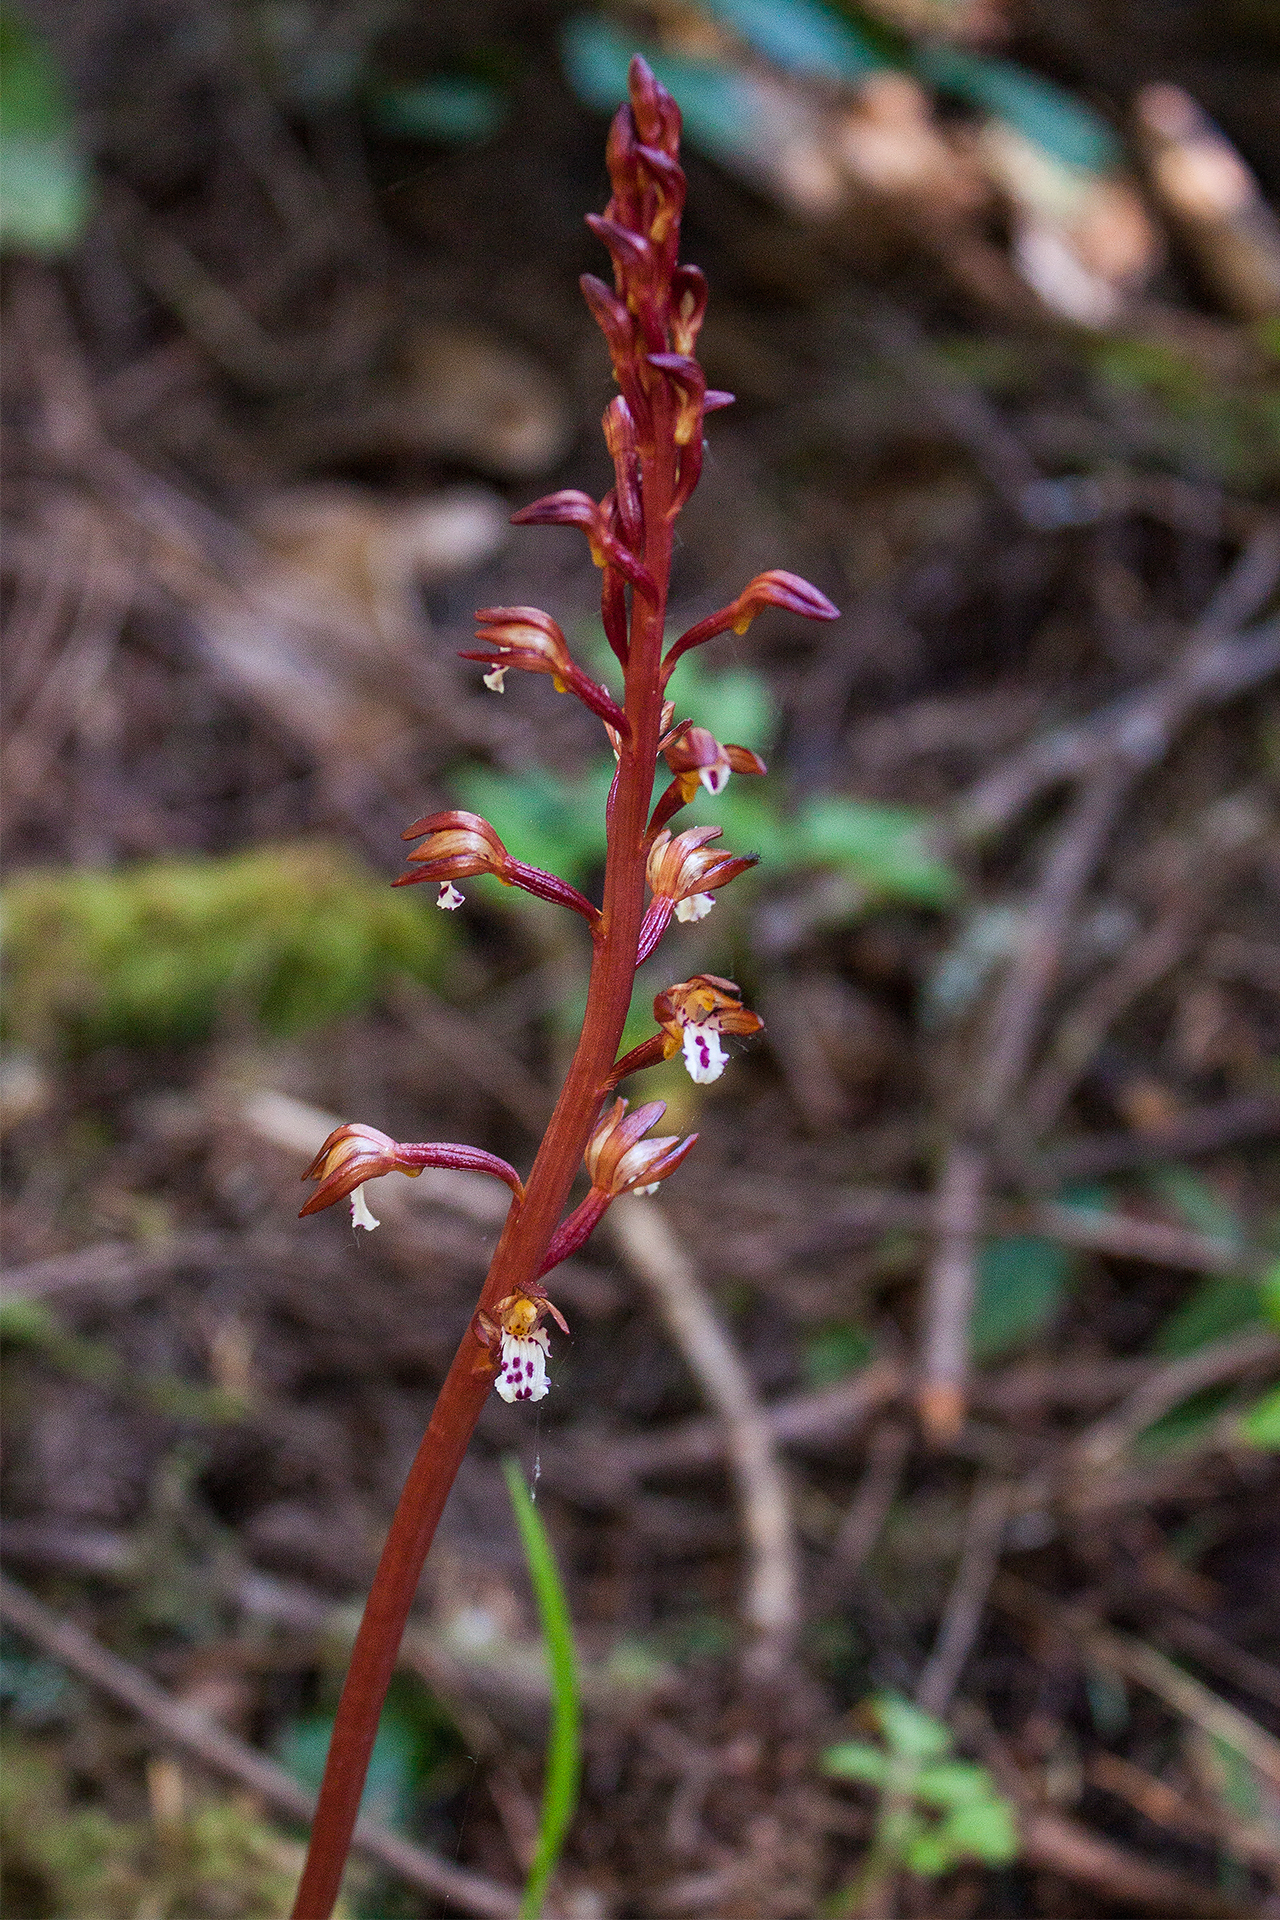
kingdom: Plantae
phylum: Tracheophyta
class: Liliopsida
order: Asparagales
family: Orchidaceae
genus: Corallorhiza
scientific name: Corallorhiza maculata
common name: Spotted coralroot
